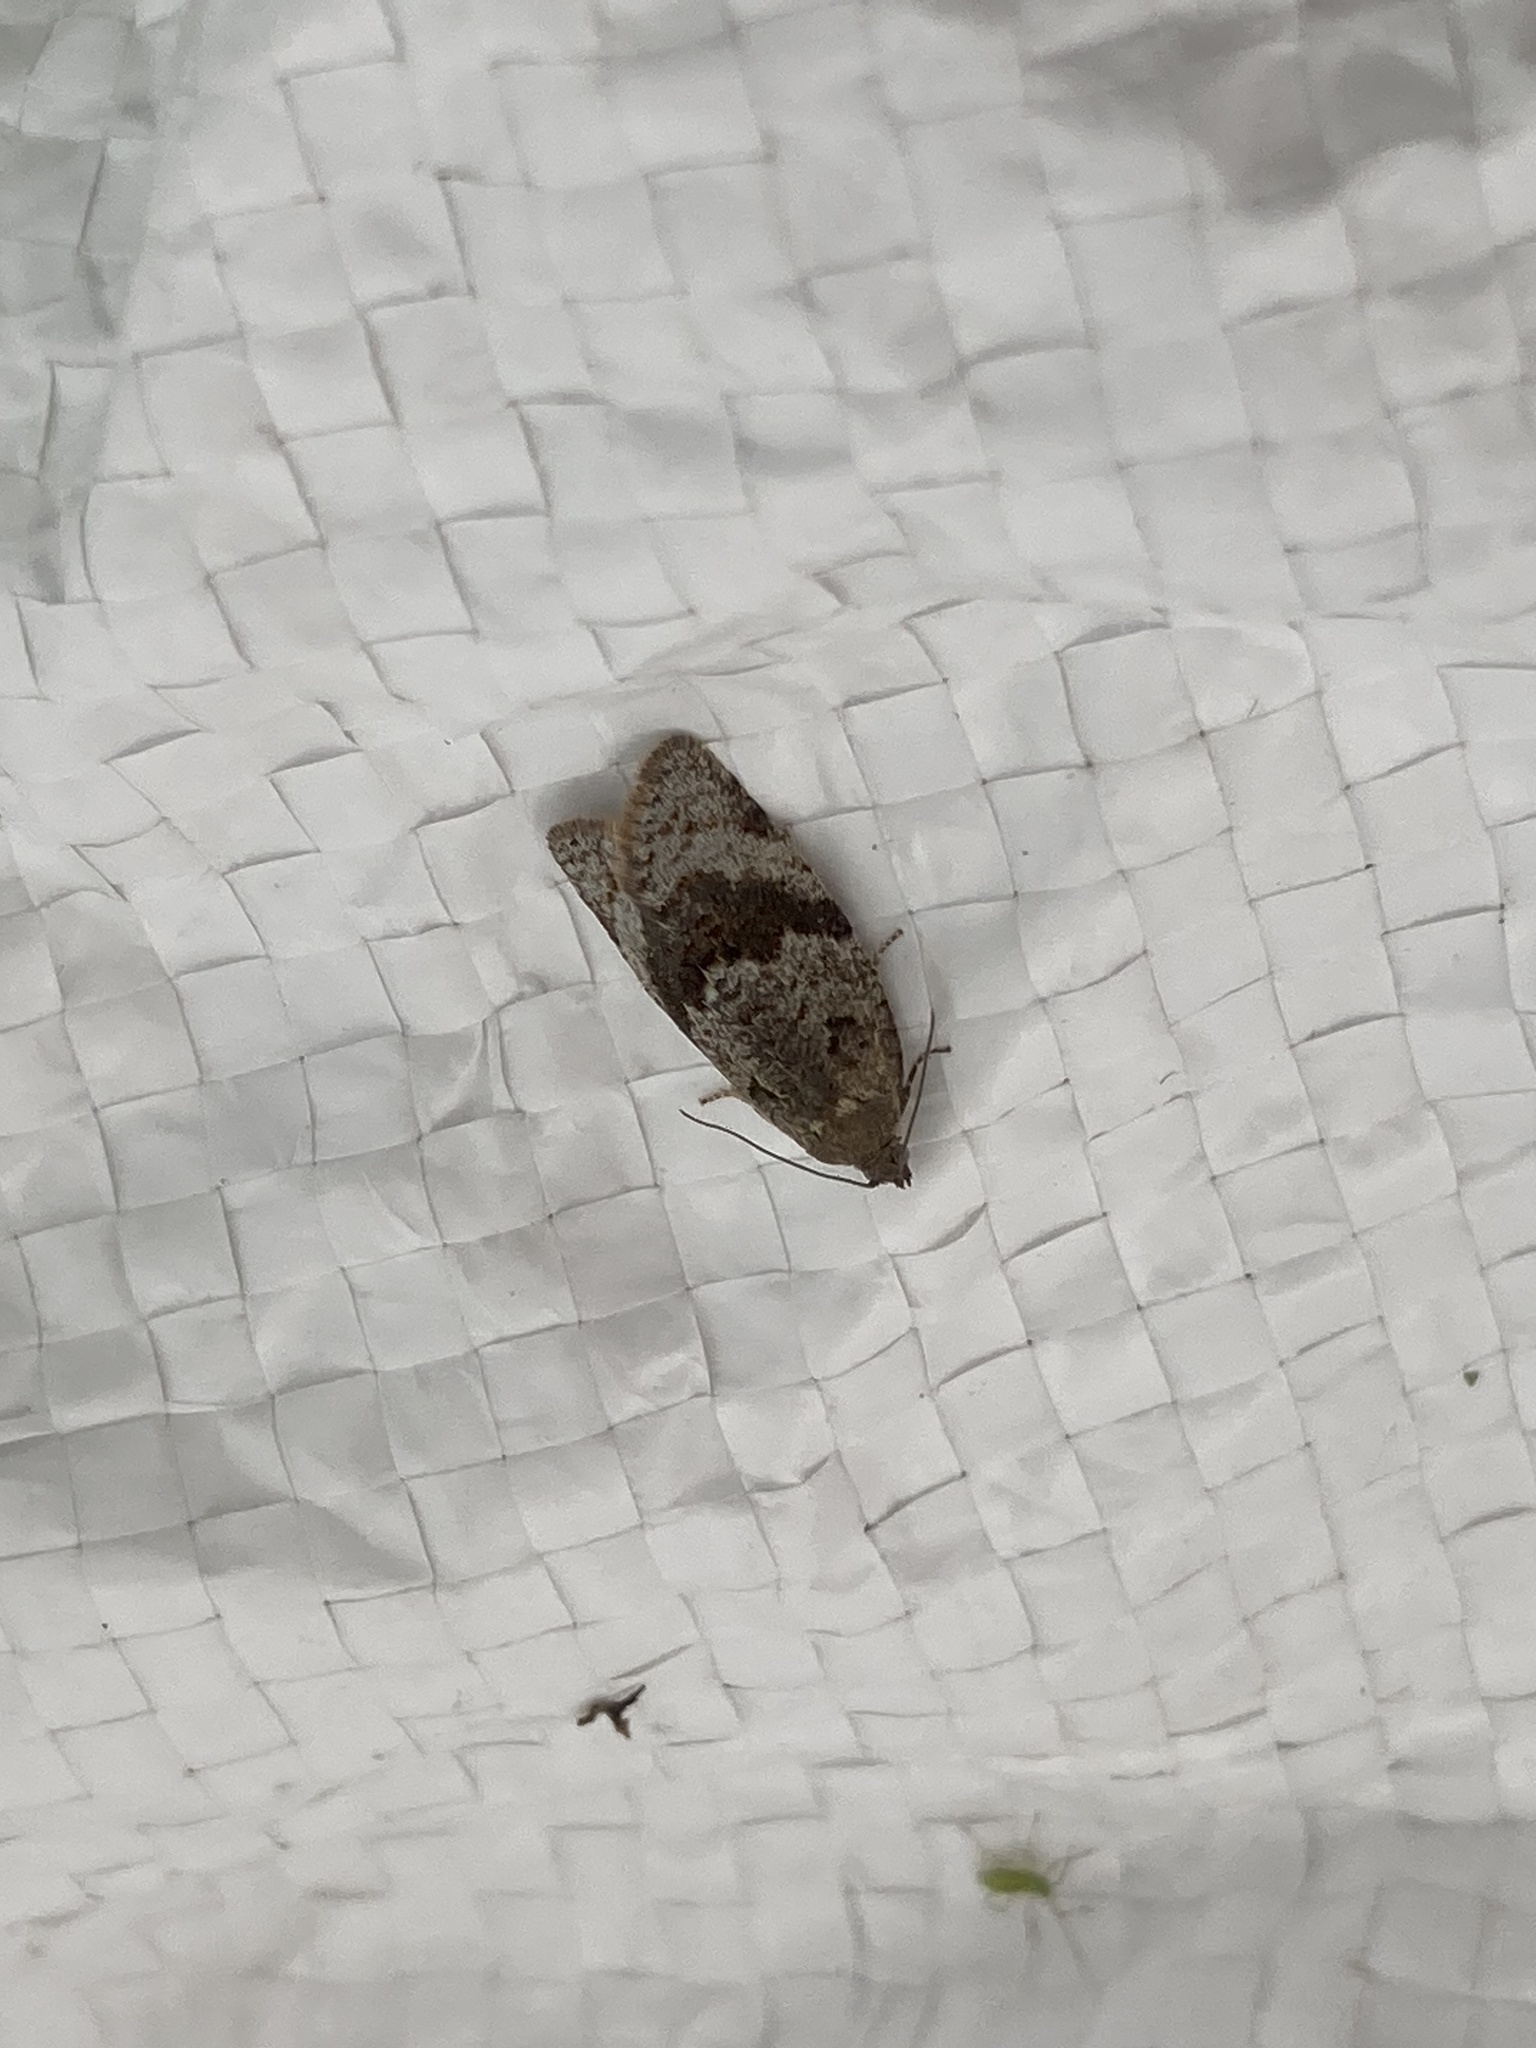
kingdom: Animalia
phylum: Arthropoda
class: Insecta
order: Lepidoptera
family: Tortricidae
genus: Syndemis
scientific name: Syndemis musculana
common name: Dark-barred twist
